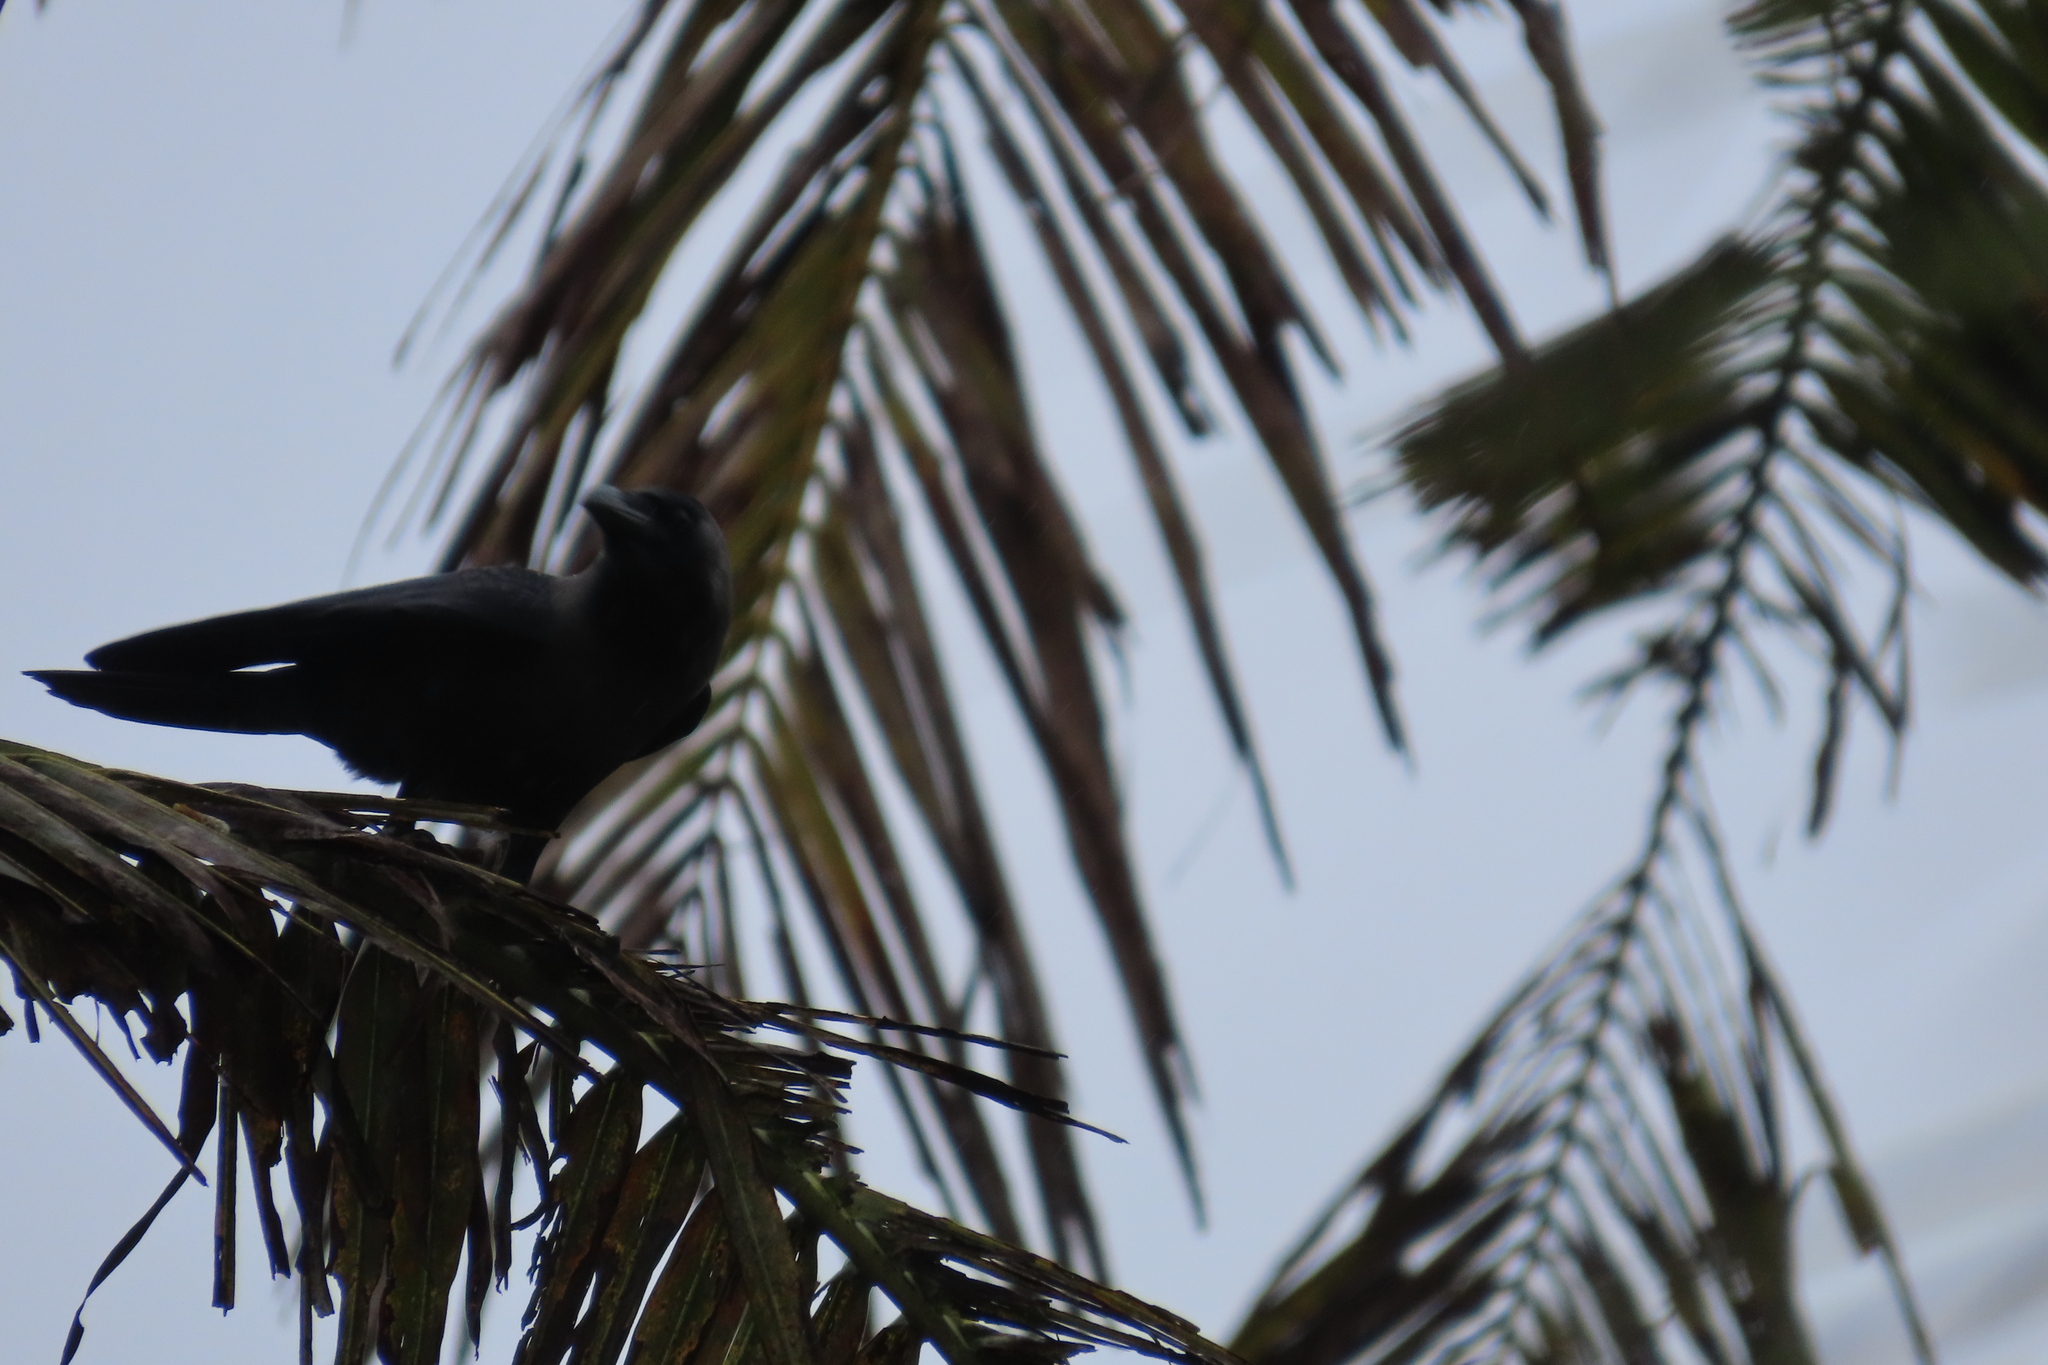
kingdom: Animalia
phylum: Chordata
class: Aves
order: Passeriformes
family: Corvidae
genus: Corvus
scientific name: Corvus splendens
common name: House crow
